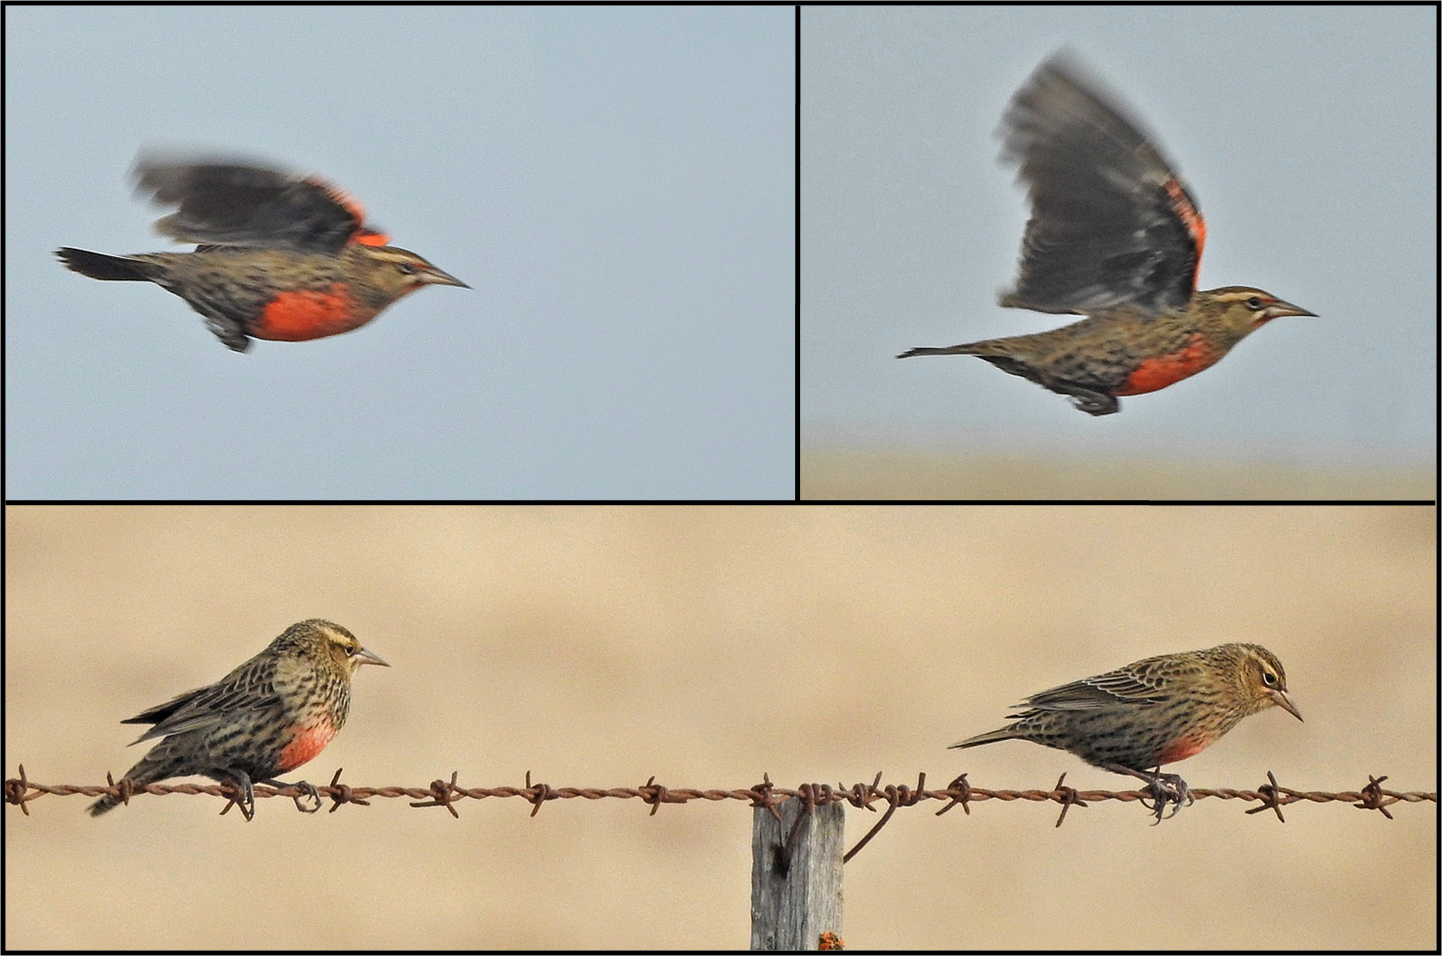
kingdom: Animalia
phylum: Chordata
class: Aves
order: Passeriformes
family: Icteridae
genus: Sturnella
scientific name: Sturnella defilippii
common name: Pampas meadowlark
